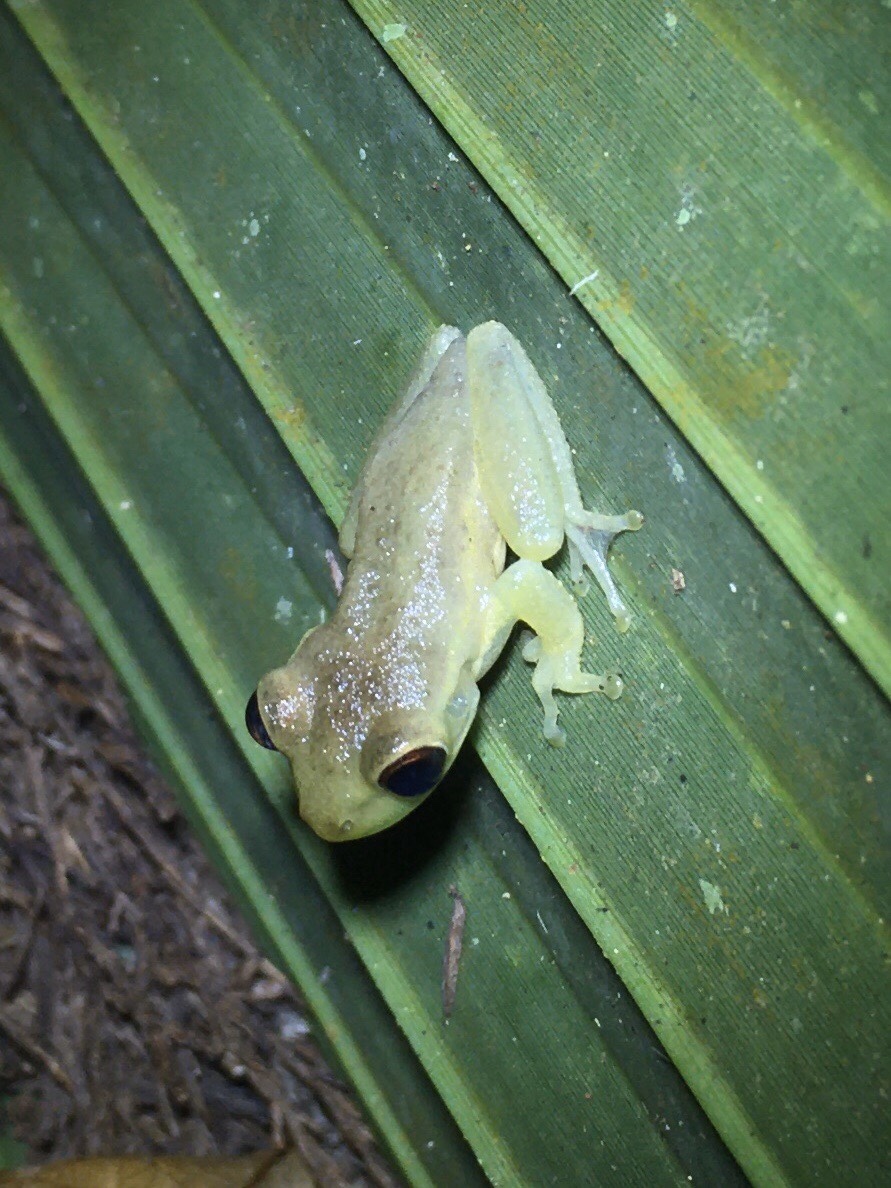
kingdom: Animalia
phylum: Chordata
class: Amphibia
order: Anura
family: Hylidae
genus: Osteopilus
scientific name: Osteopilus septentrionalis
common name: Cuban treefrog
